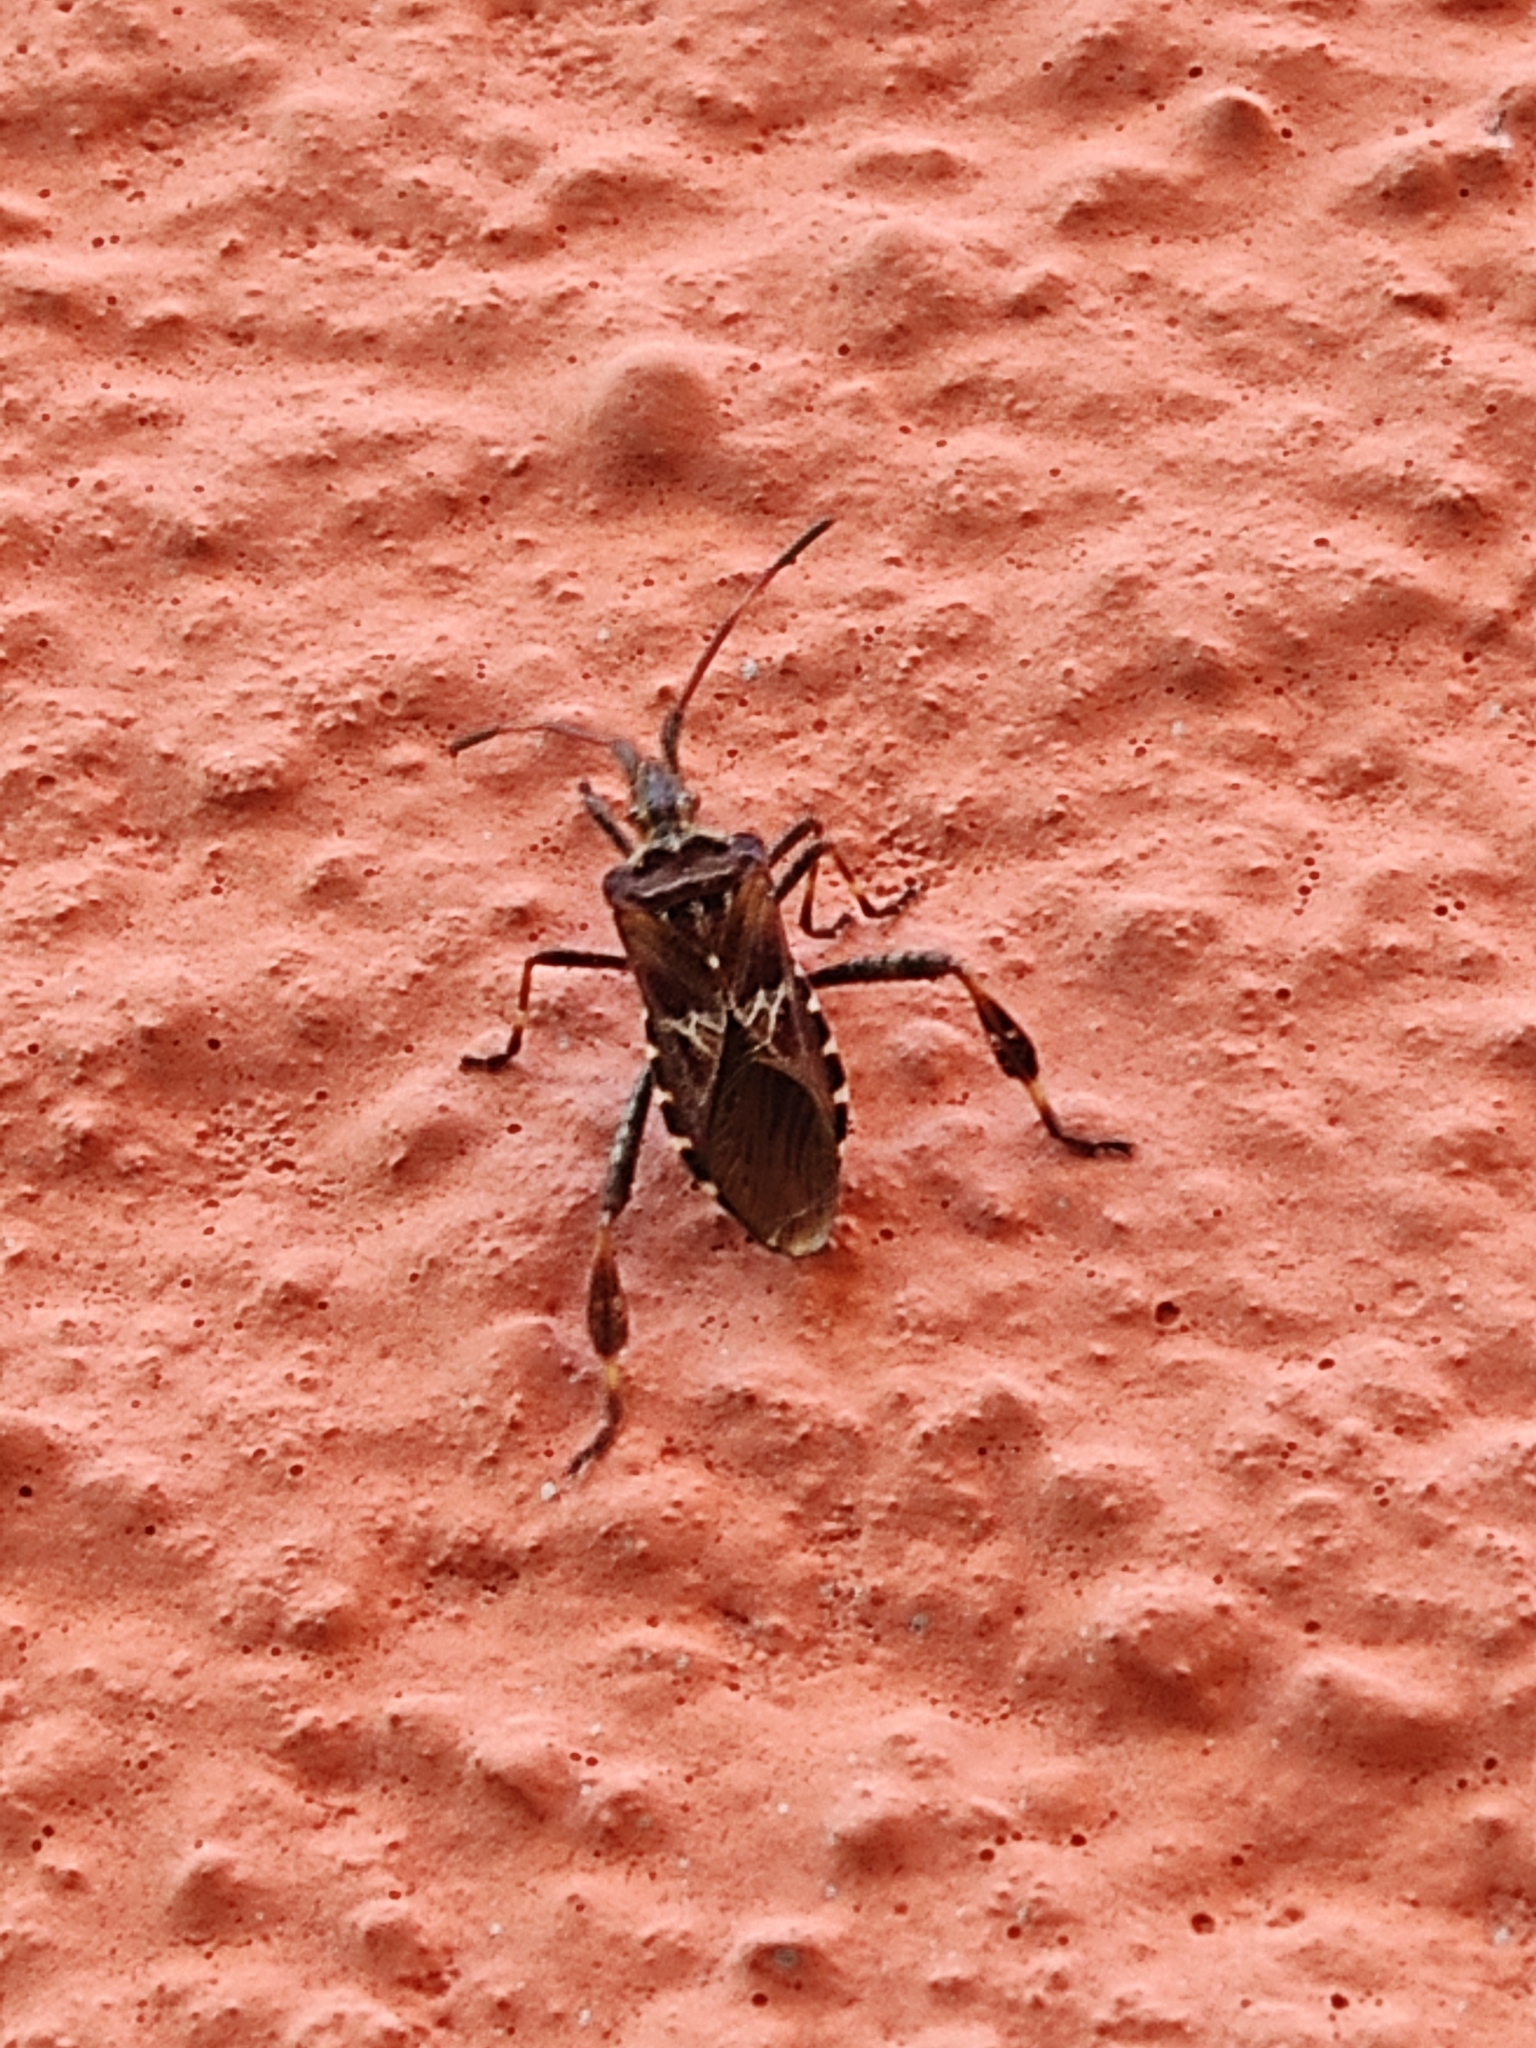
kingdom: Animalia
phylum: Arthropoda
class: Insecta
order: Hemiptera
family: Coreidae
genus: Leptoglossus
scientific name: Leptoglossus occidentalis
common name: Western conifer-seed bug
